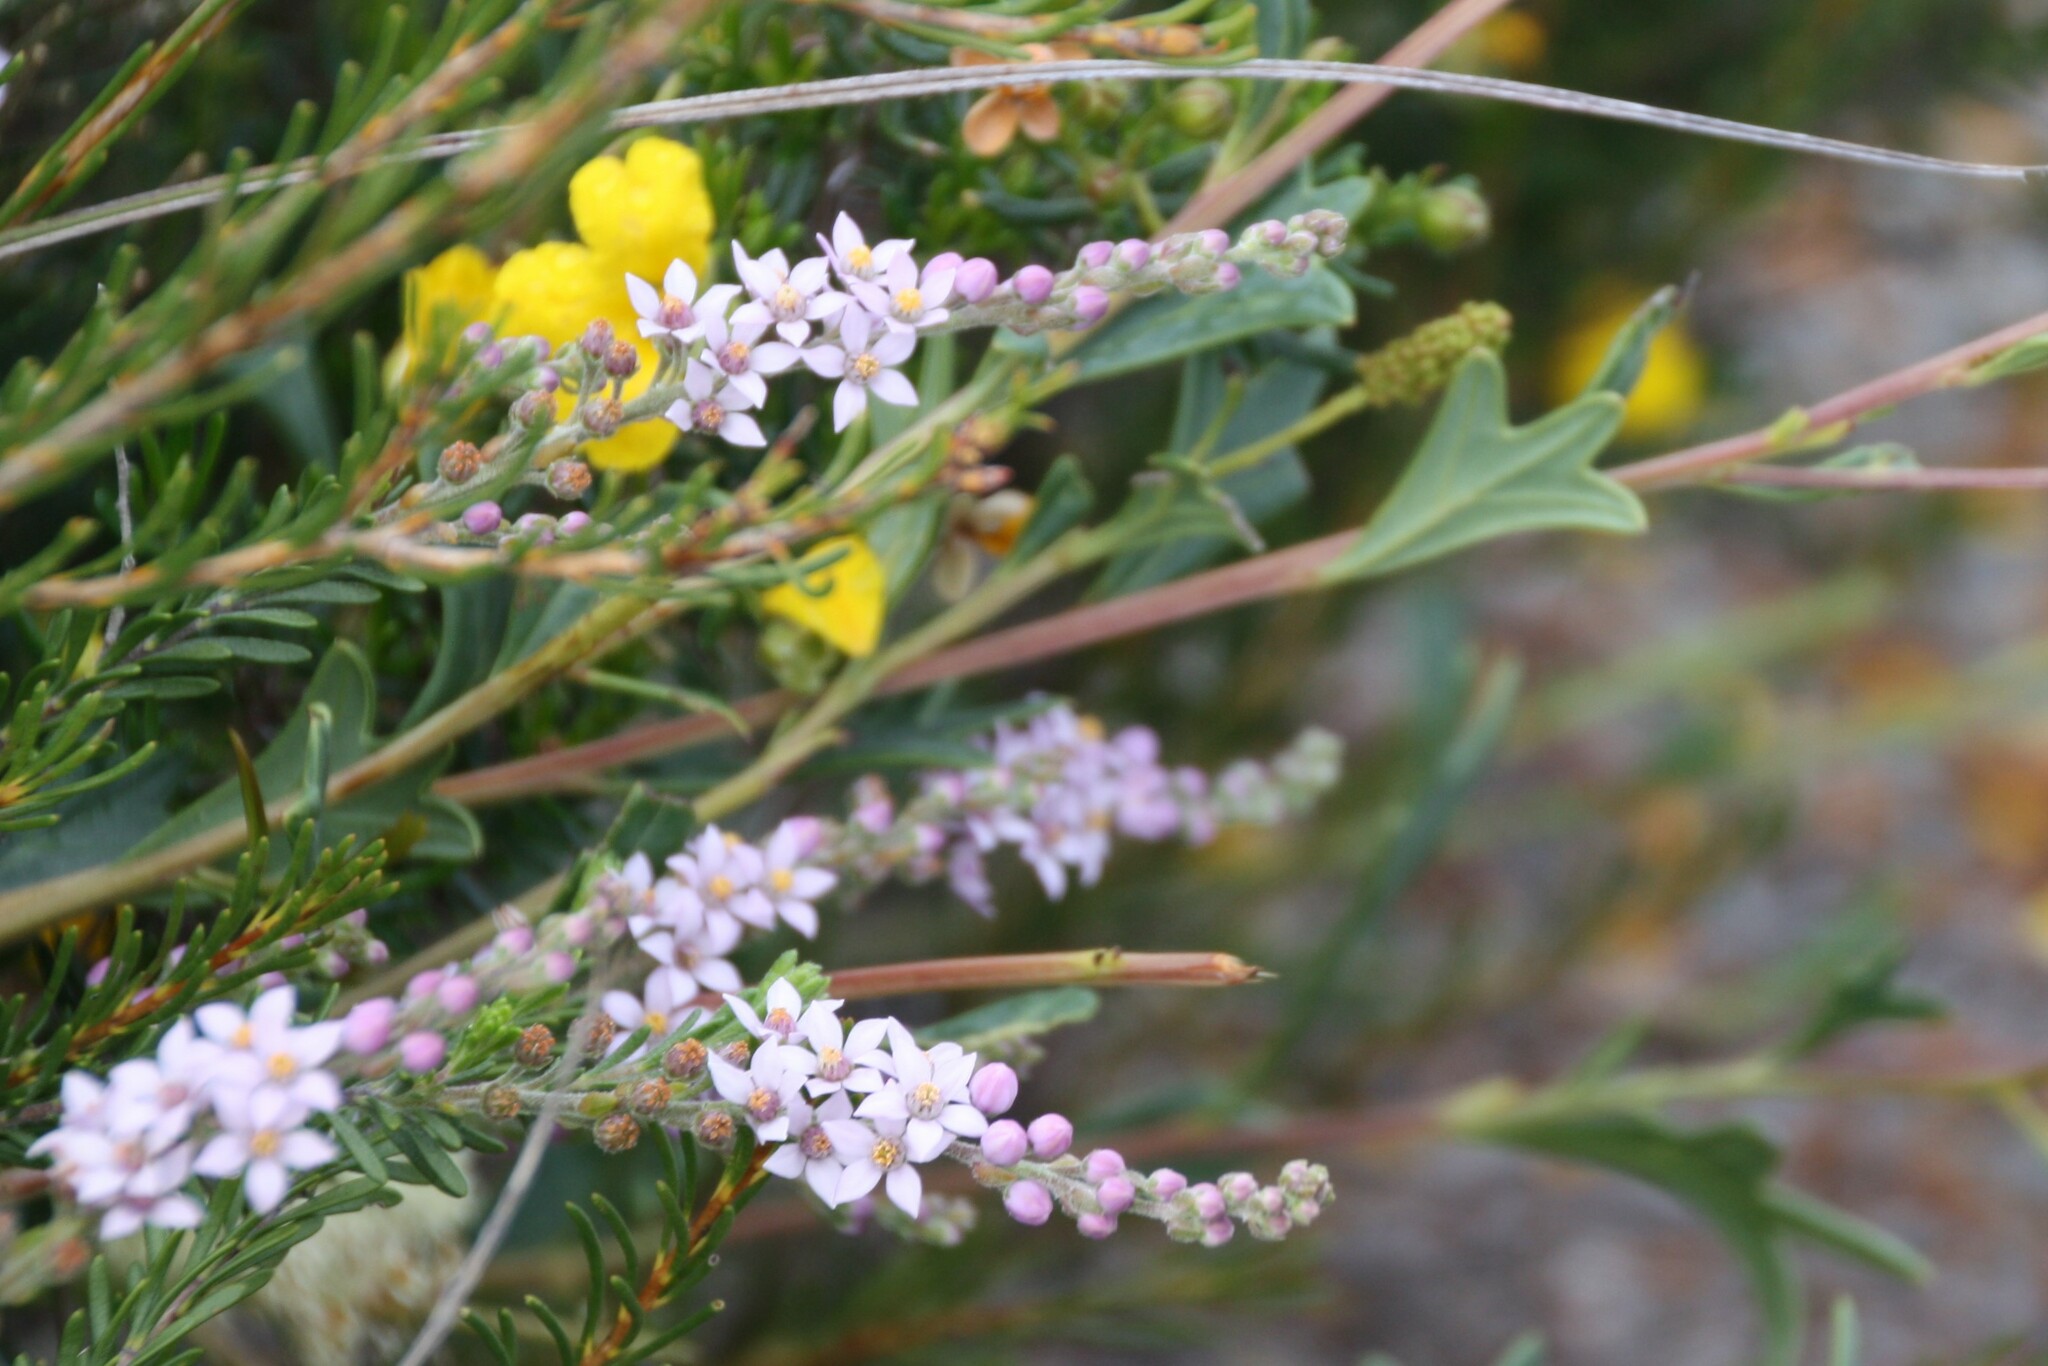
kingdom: Plantae
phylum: Tracheophyta
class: Magnoliopsida
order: Sapindales
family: Rutaceae
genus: Philotheca
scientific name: Philotheca spicata
